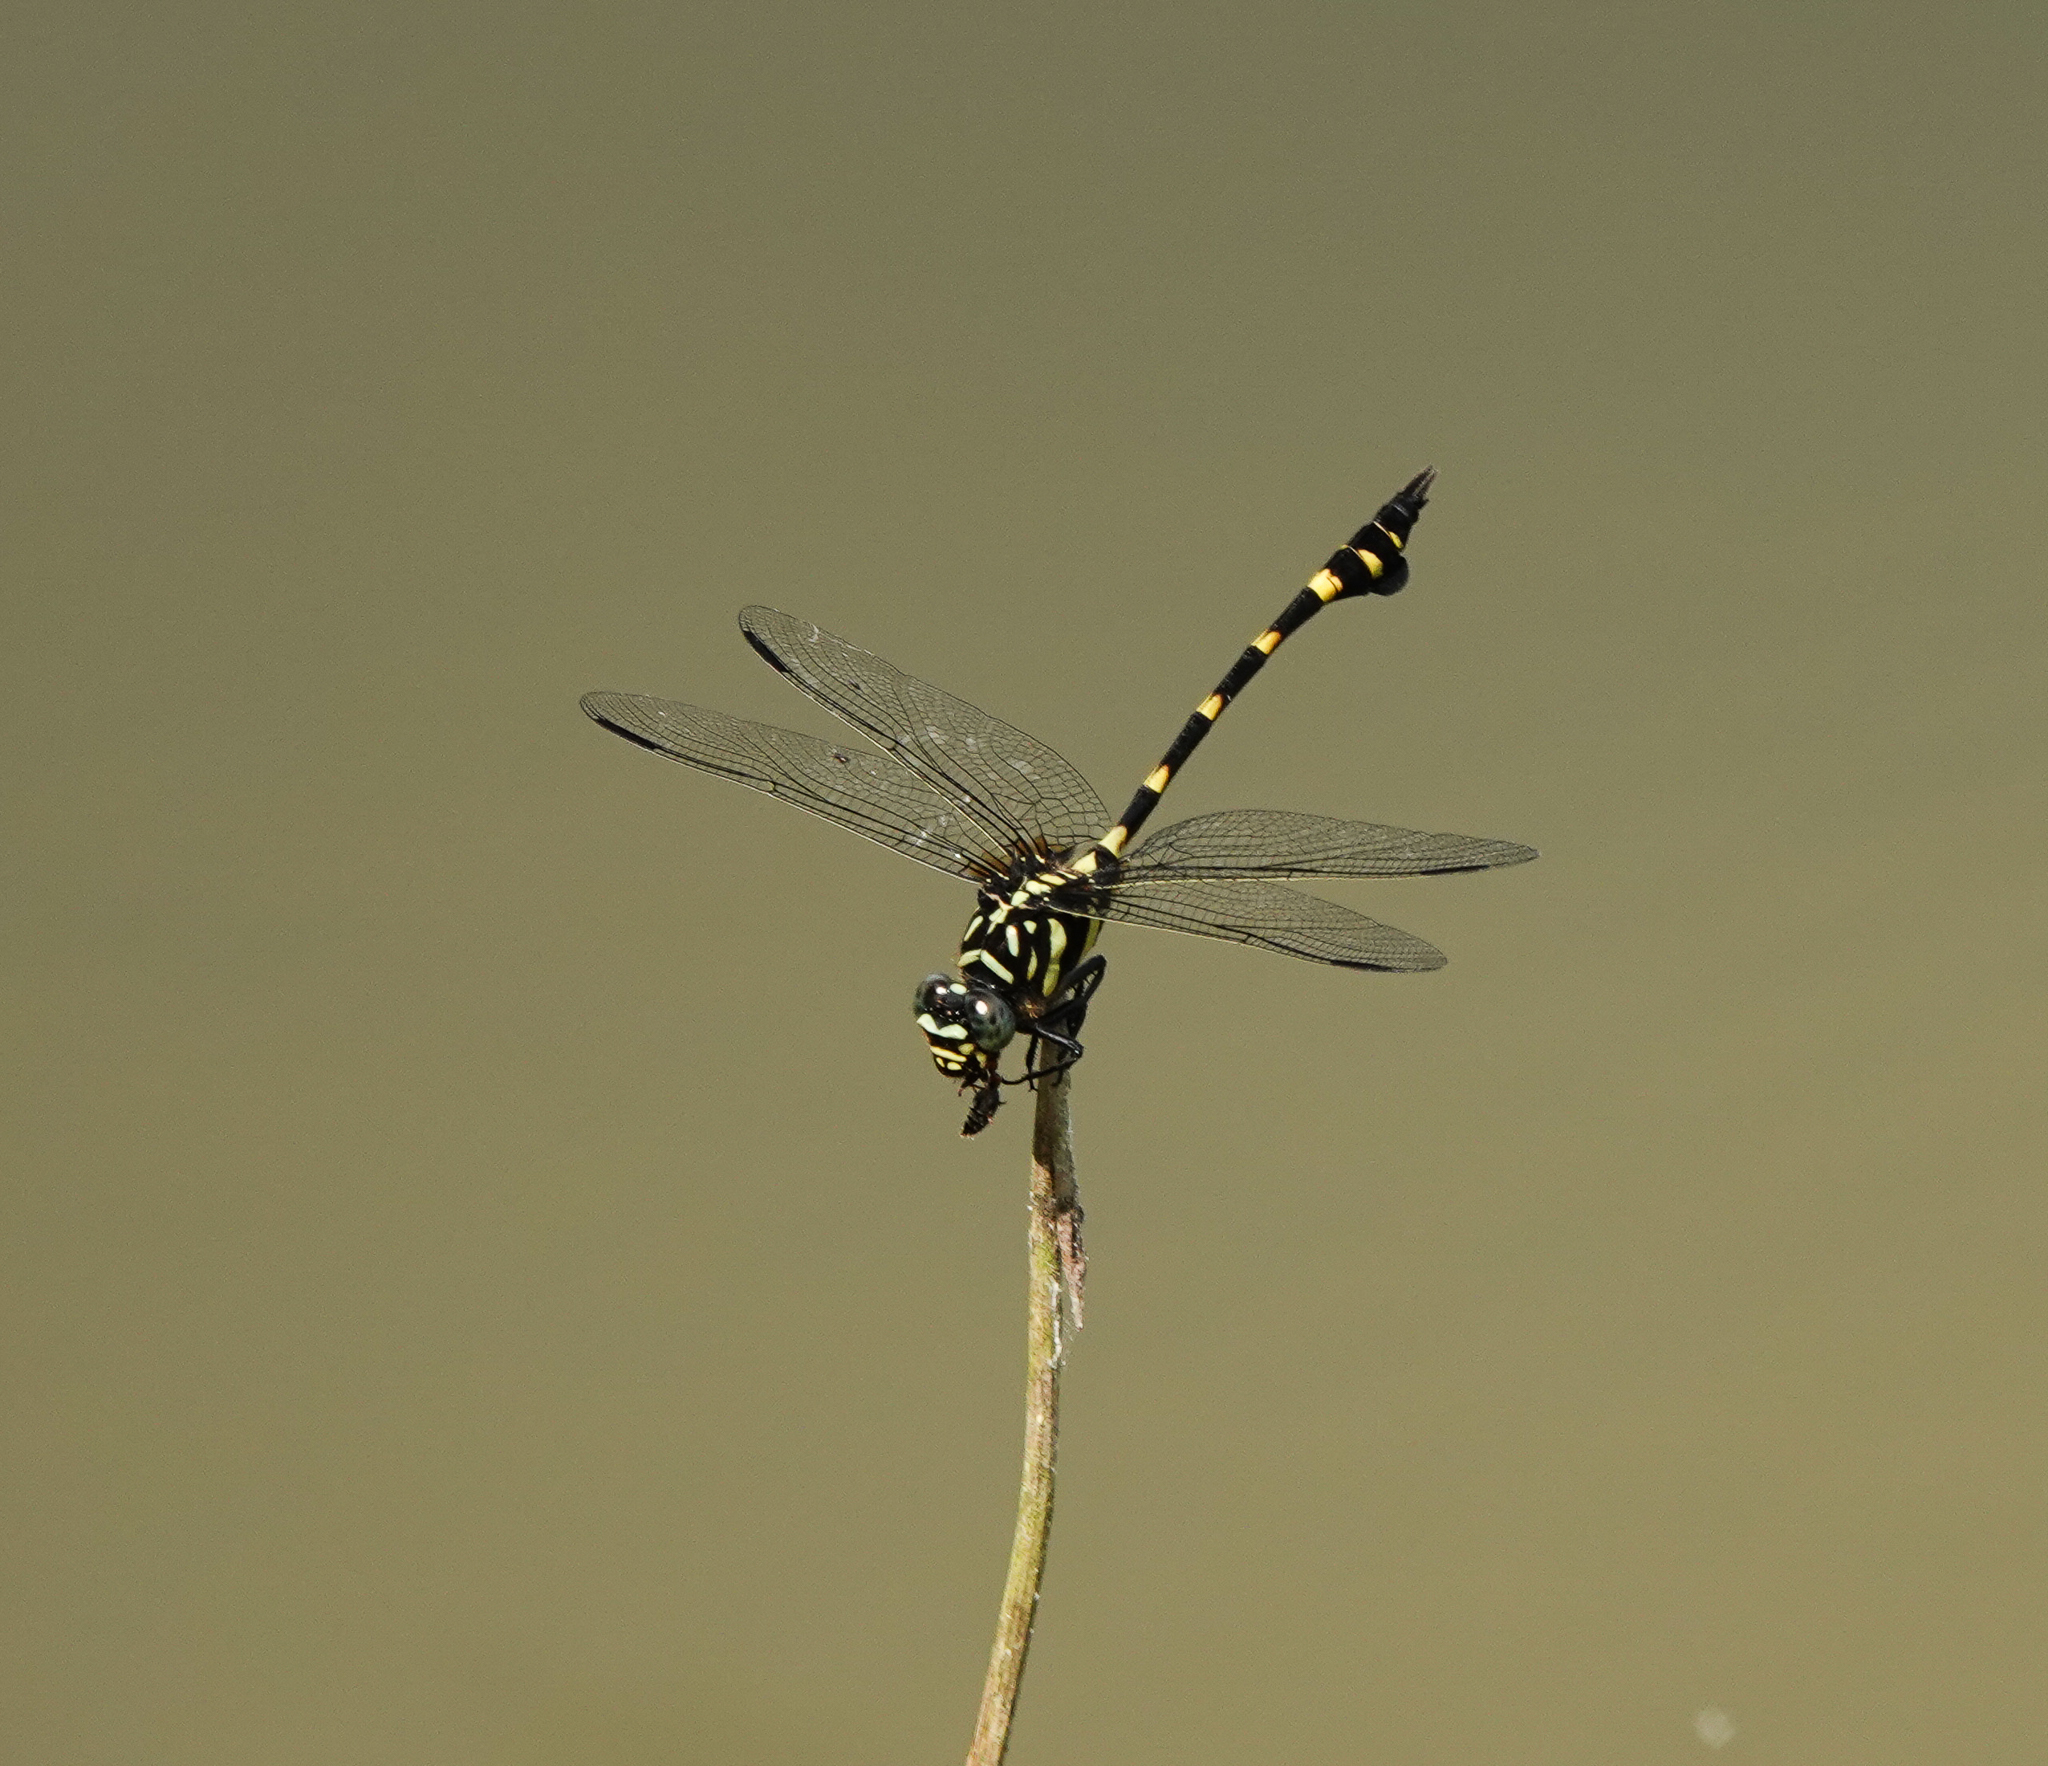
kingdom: Animalia
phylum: Arthropoda
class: Insecta
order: Odonata
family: Gomphidae
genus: Ictinogomphus
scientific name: Ictinogomphus rapax
